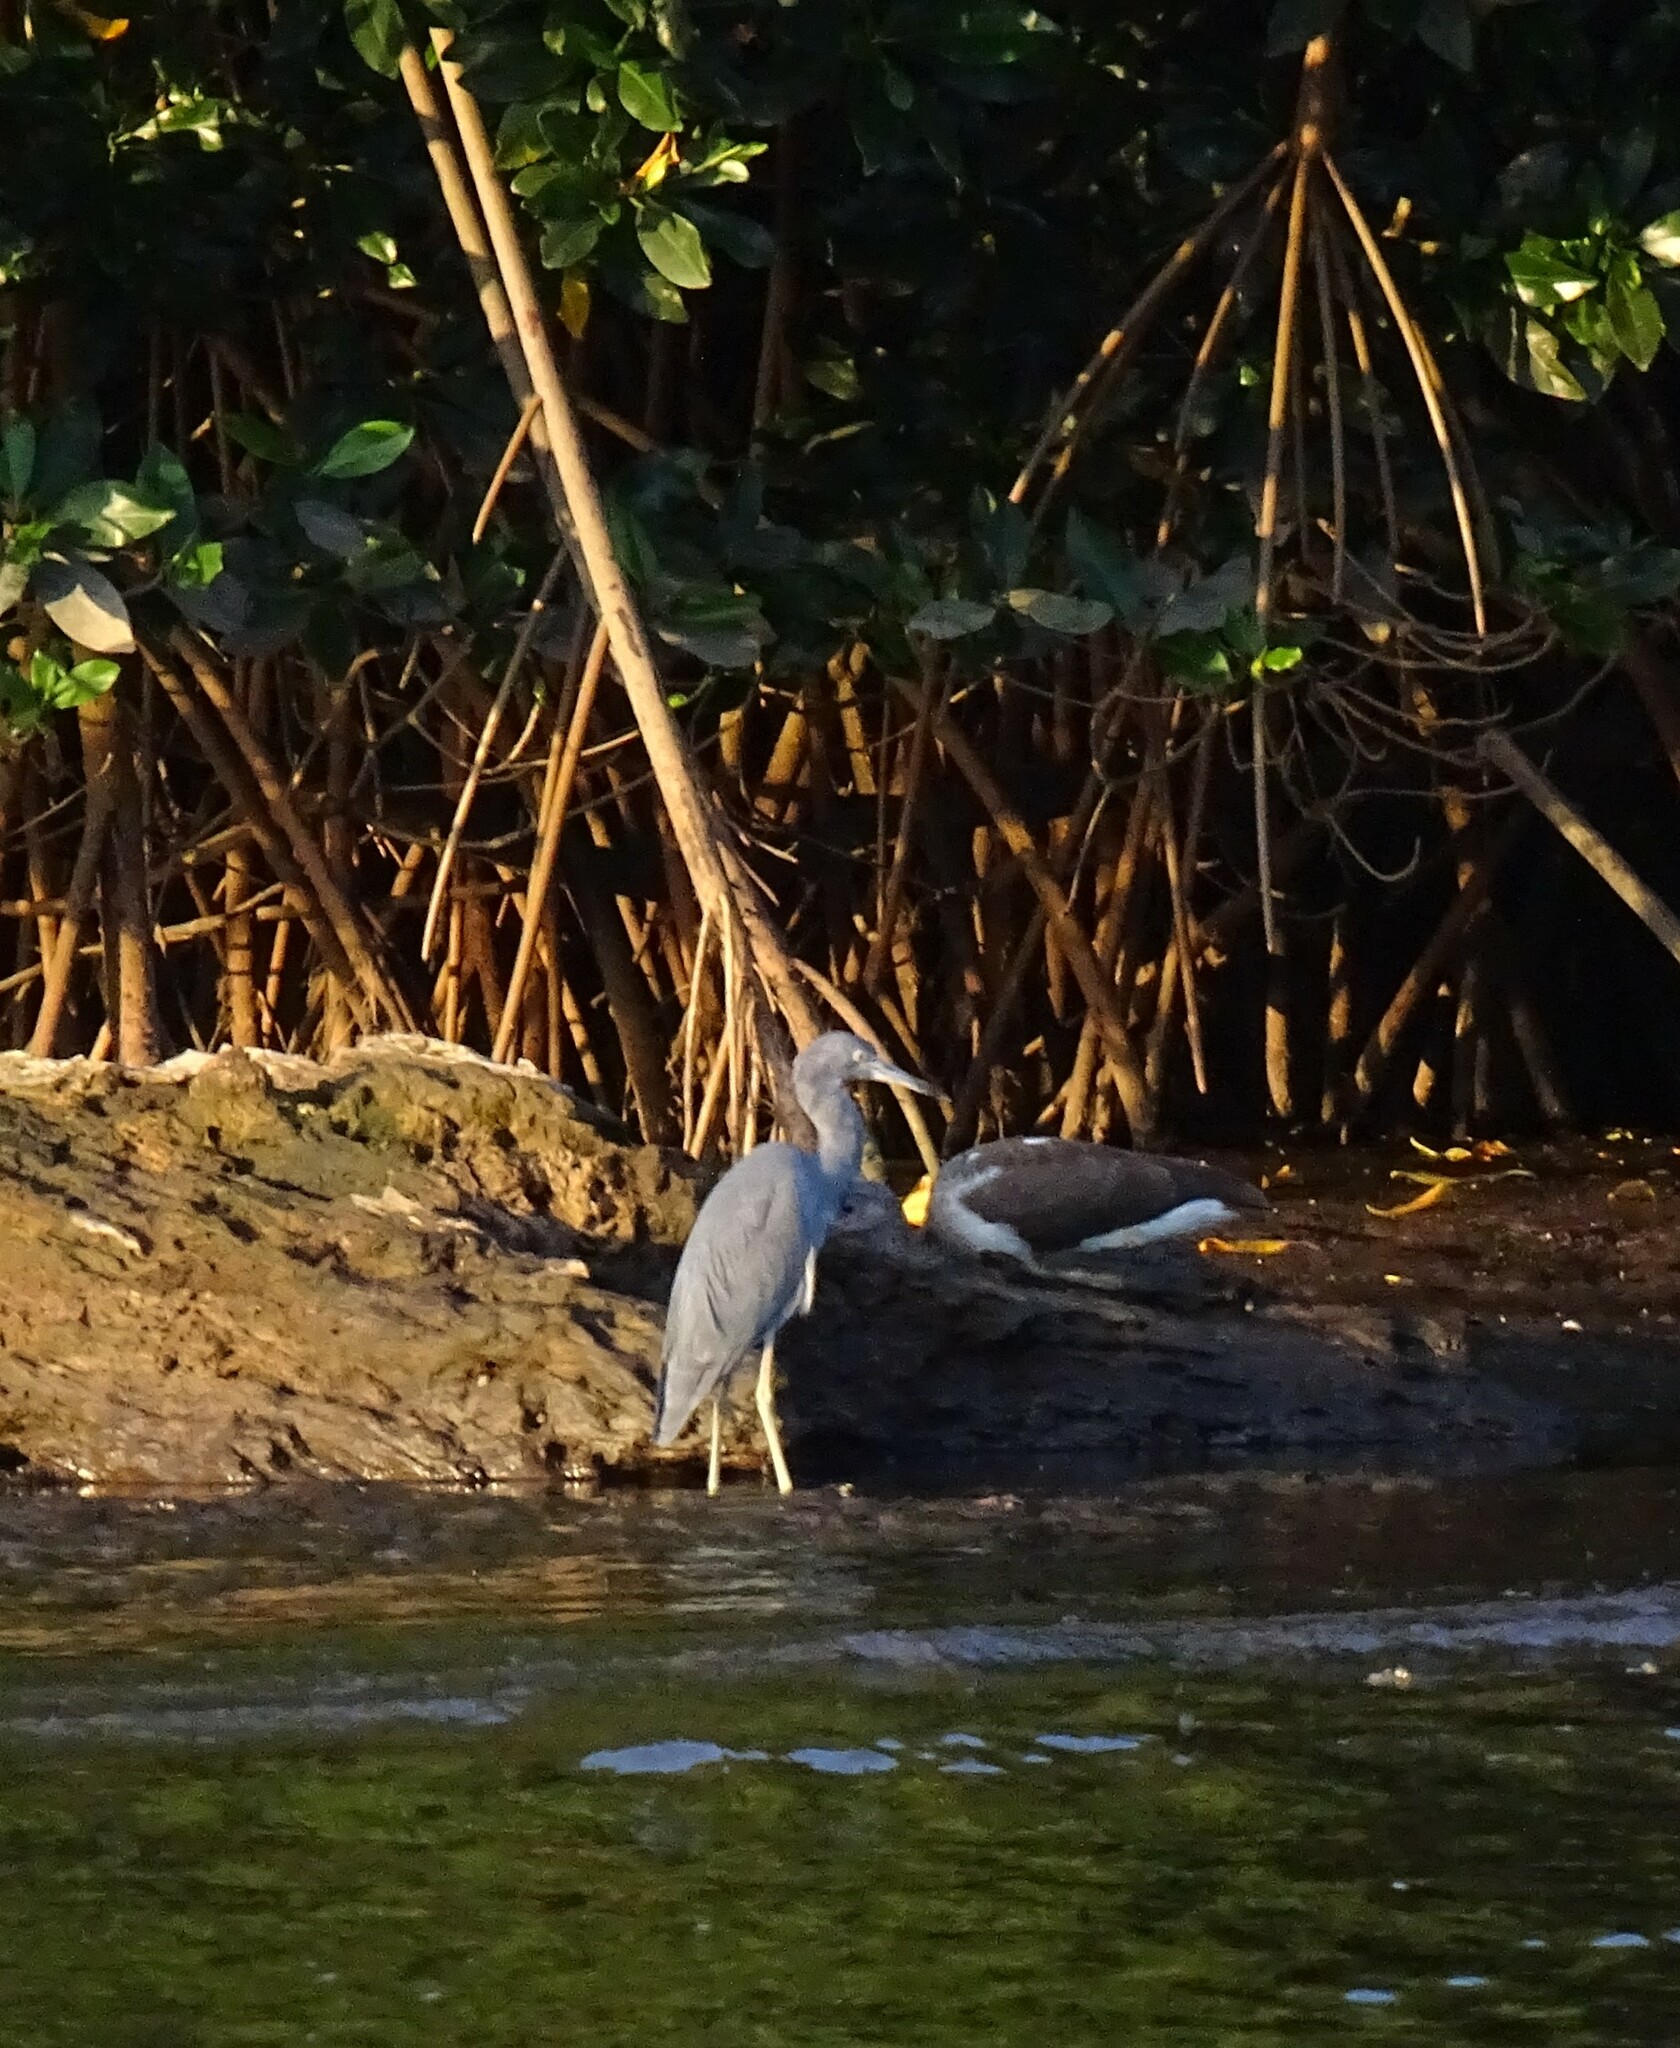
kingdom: Animalia
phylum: Chordata
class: Aves
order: Pelecaniformes
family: Ardeidae
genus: Egretta
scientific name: Egretta caerulea
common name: Little blue heron
